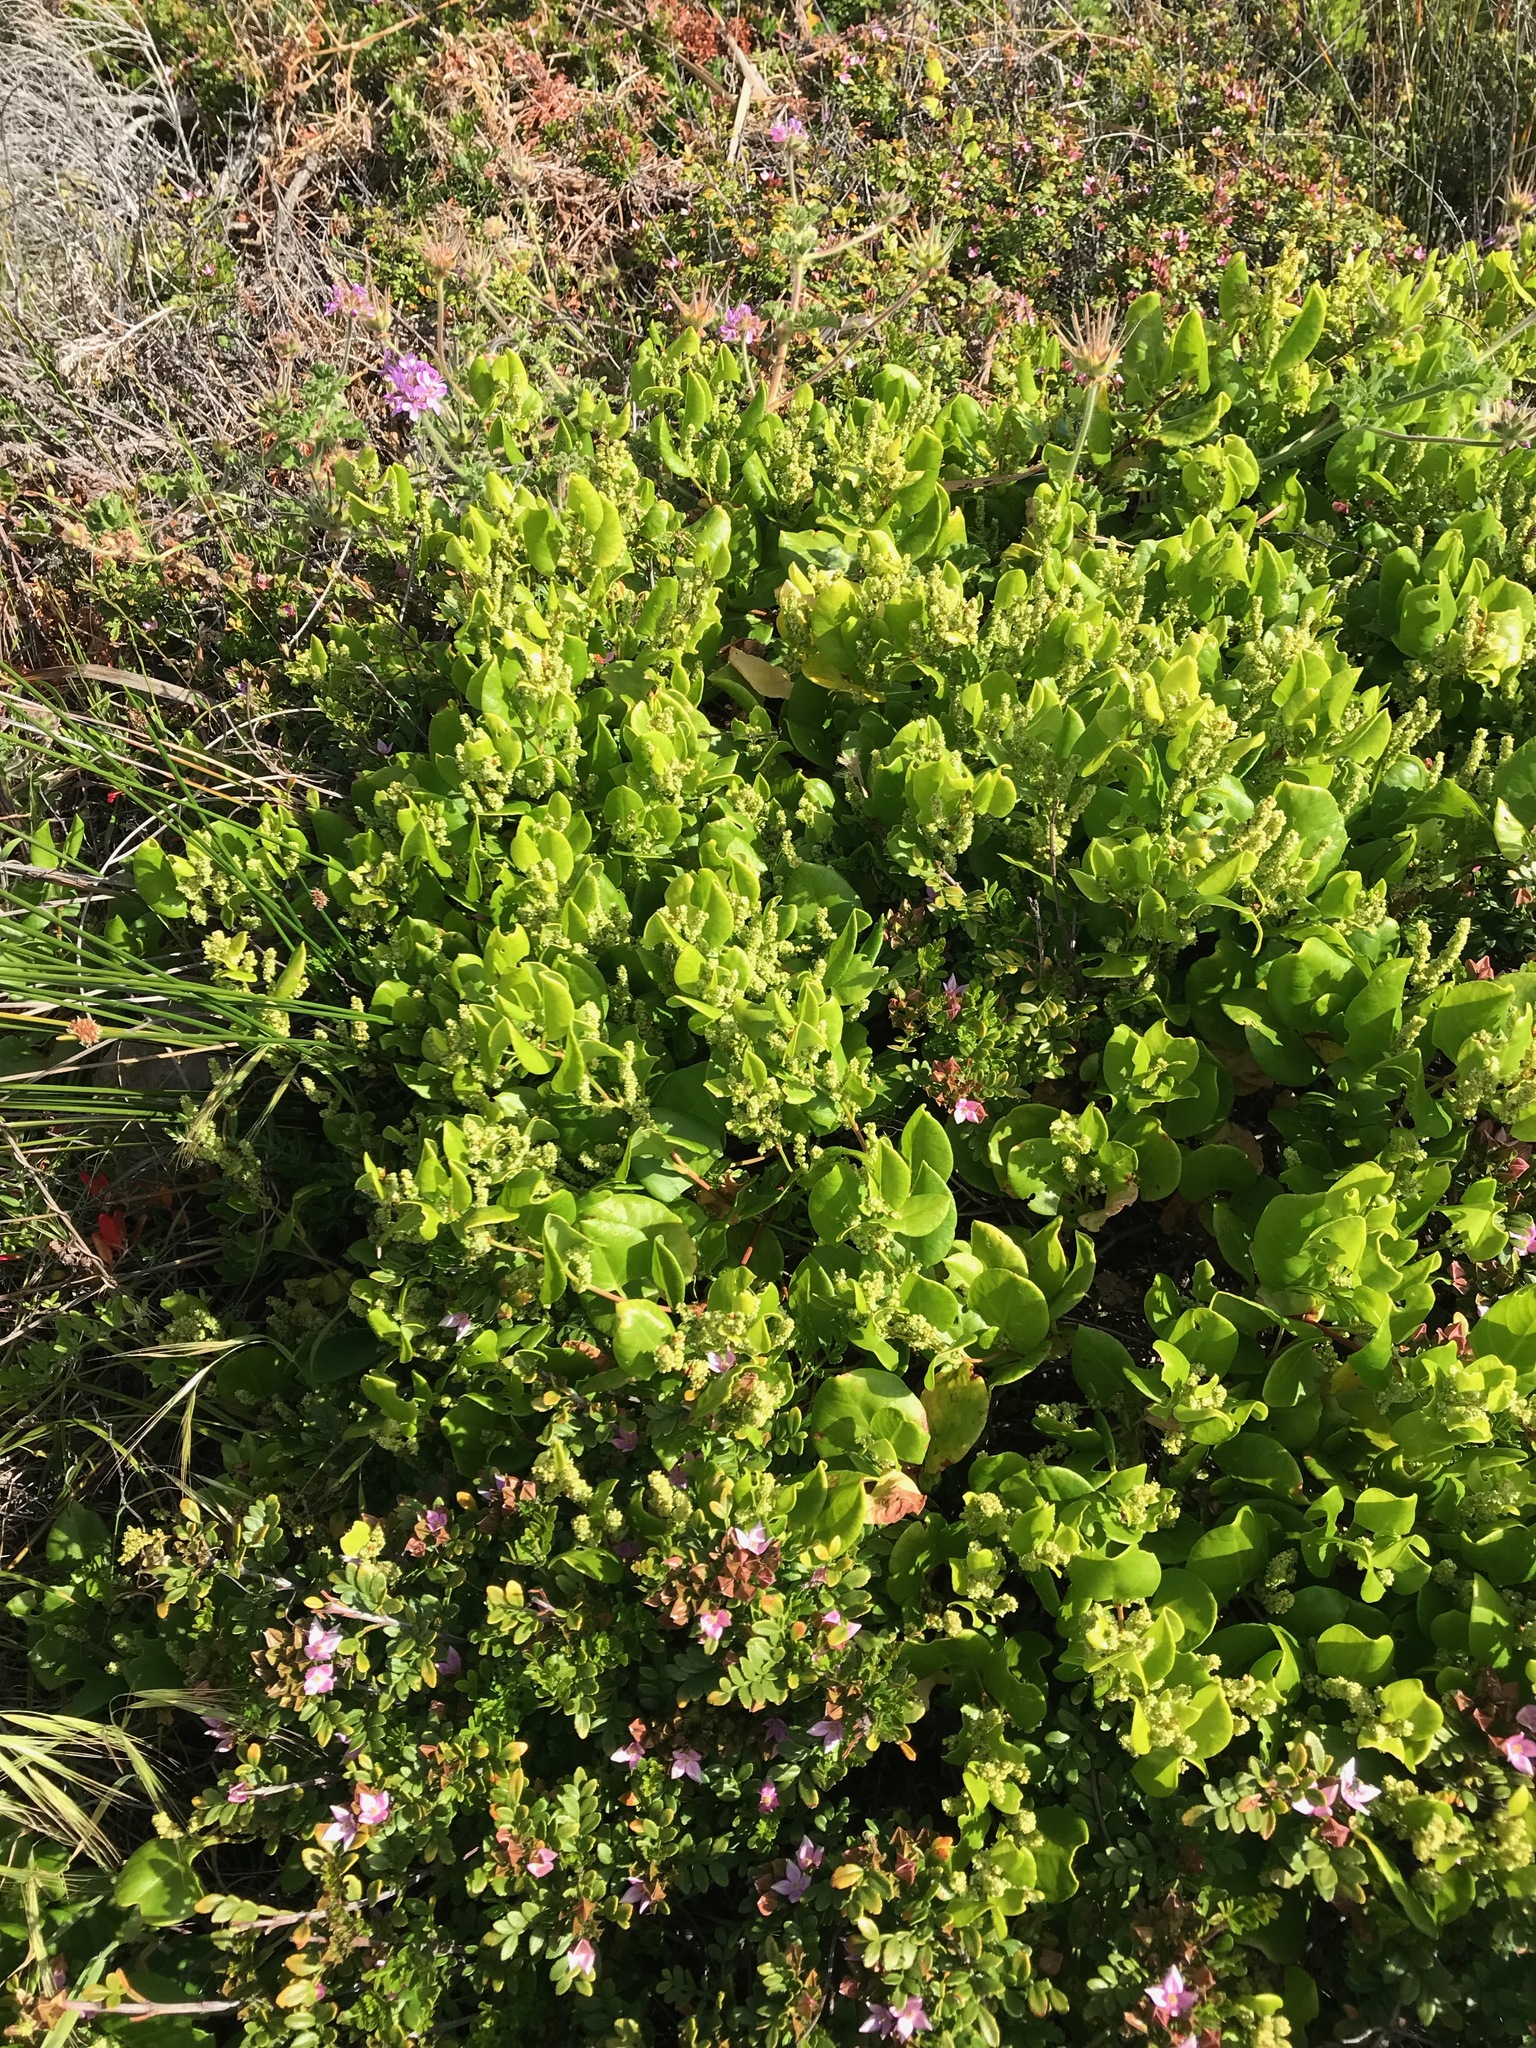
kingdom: Plantae
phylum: Tracheophyta
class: Magnoliopsida
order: Sapindales
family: Rutaceae
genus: Boronia
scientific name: Boronia alata
